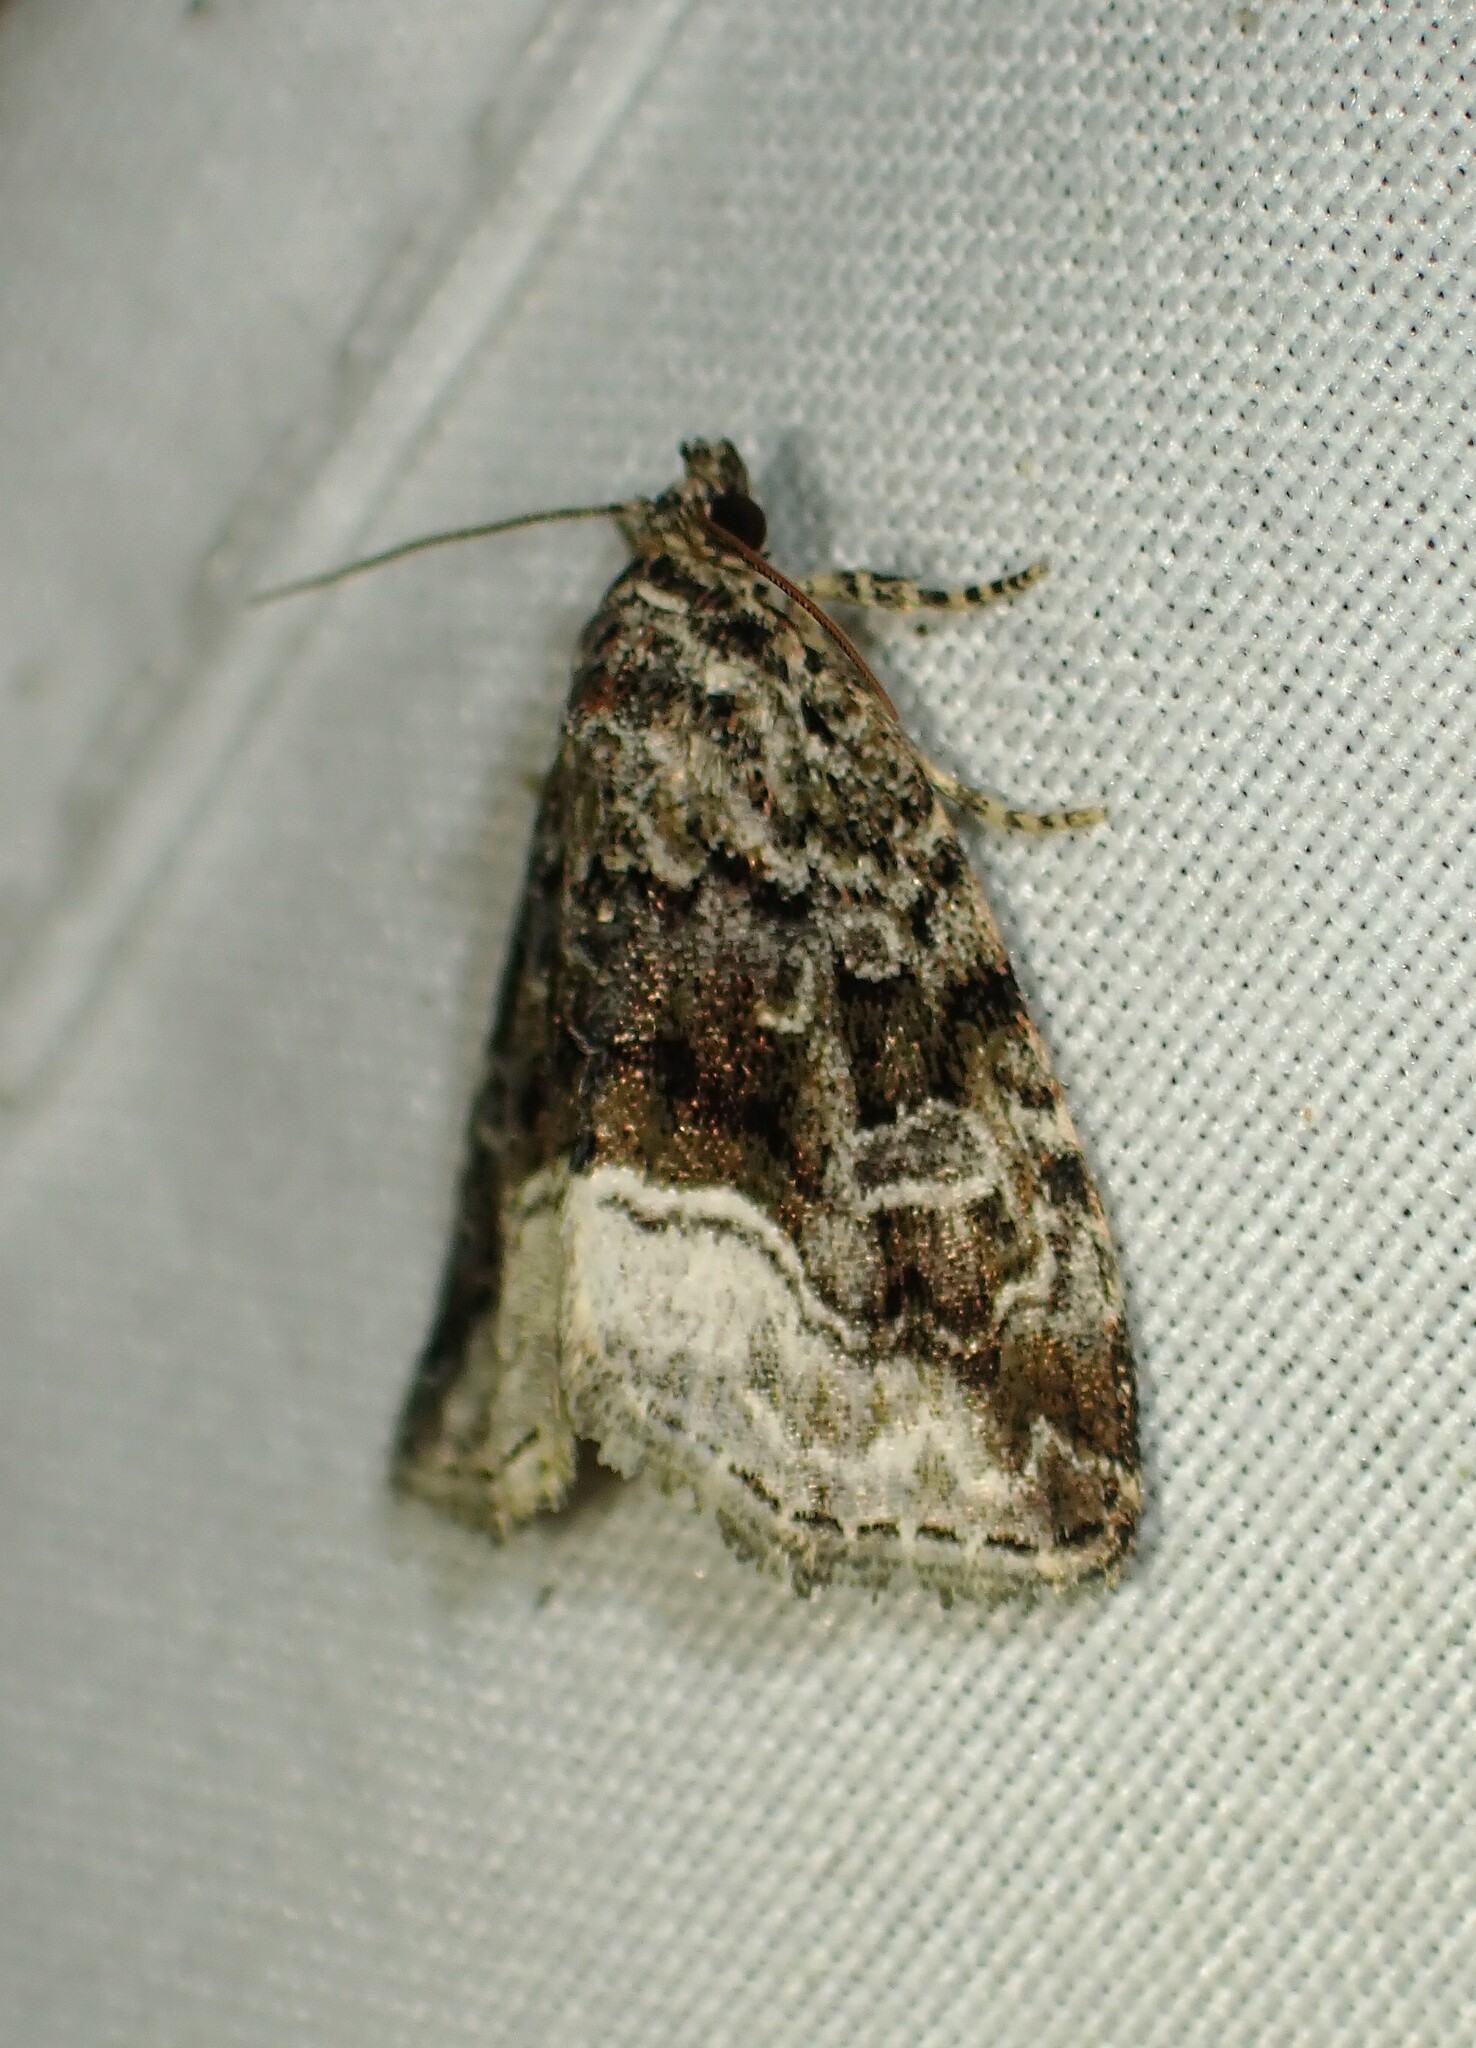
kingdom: Animalia
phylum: Arthropoda
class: Insecta
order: Lepidoptera
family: Noctuidae
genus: Protodeltote
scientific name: Protodeltote muscosula
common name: Large mossy glyph
